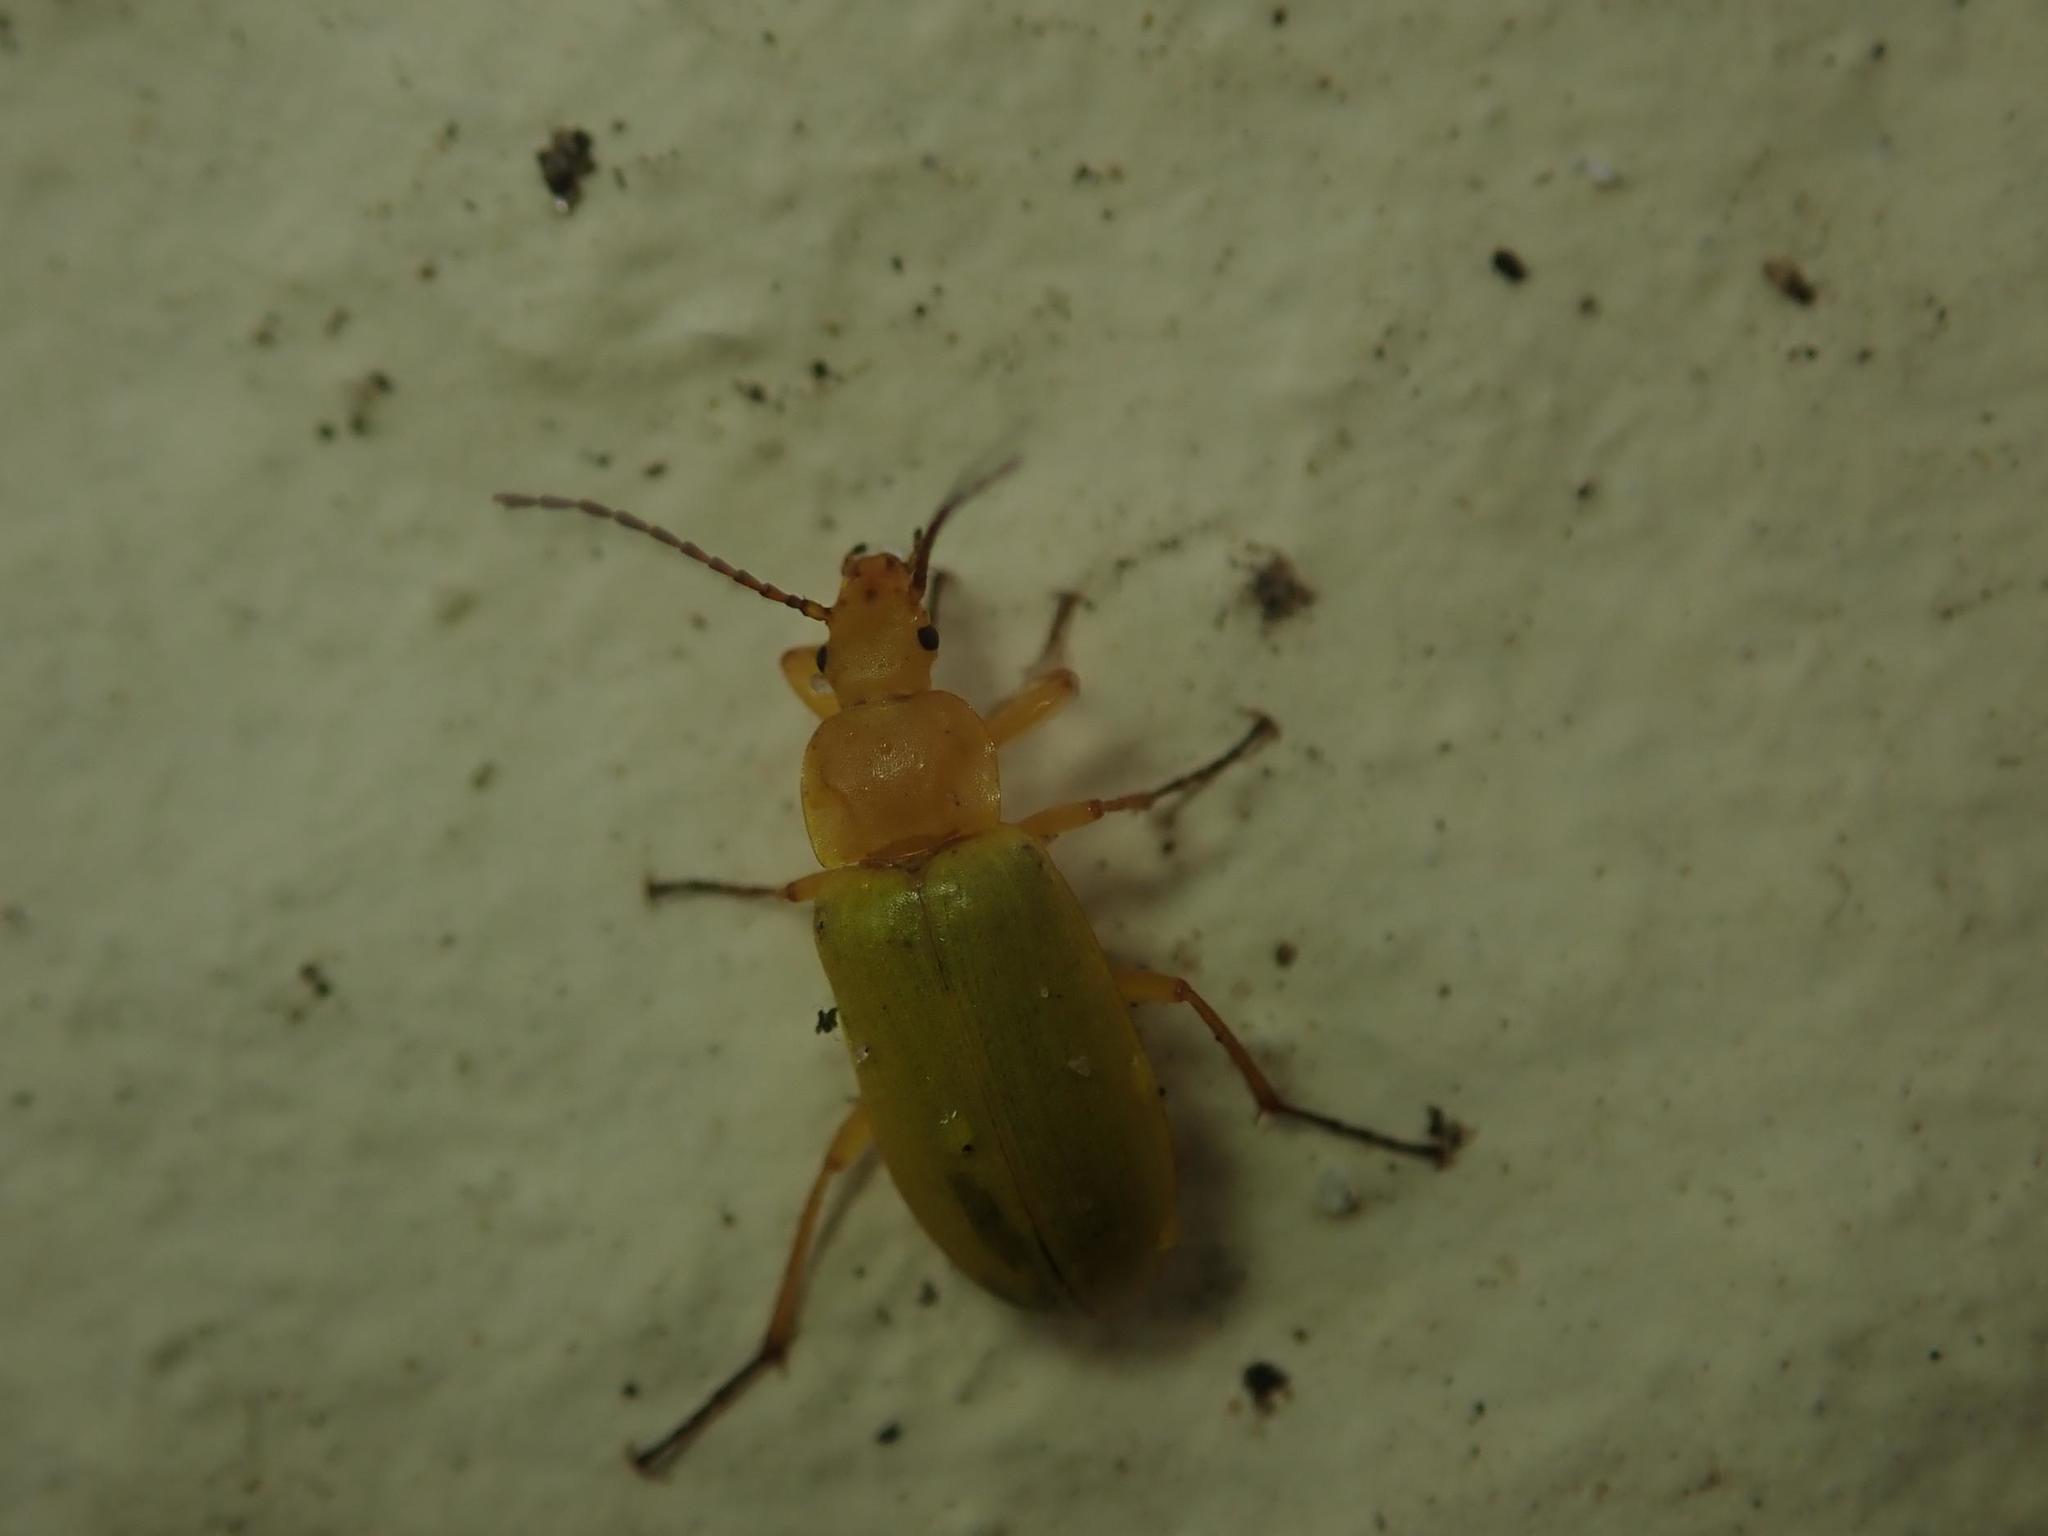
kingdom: Animalia
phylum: Arthropoda
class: Insecta
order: Coleoptera
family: Tenebrionidae
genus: Cteniopus
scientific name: Cteniopus sulphureus
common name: Sulphur beetle
